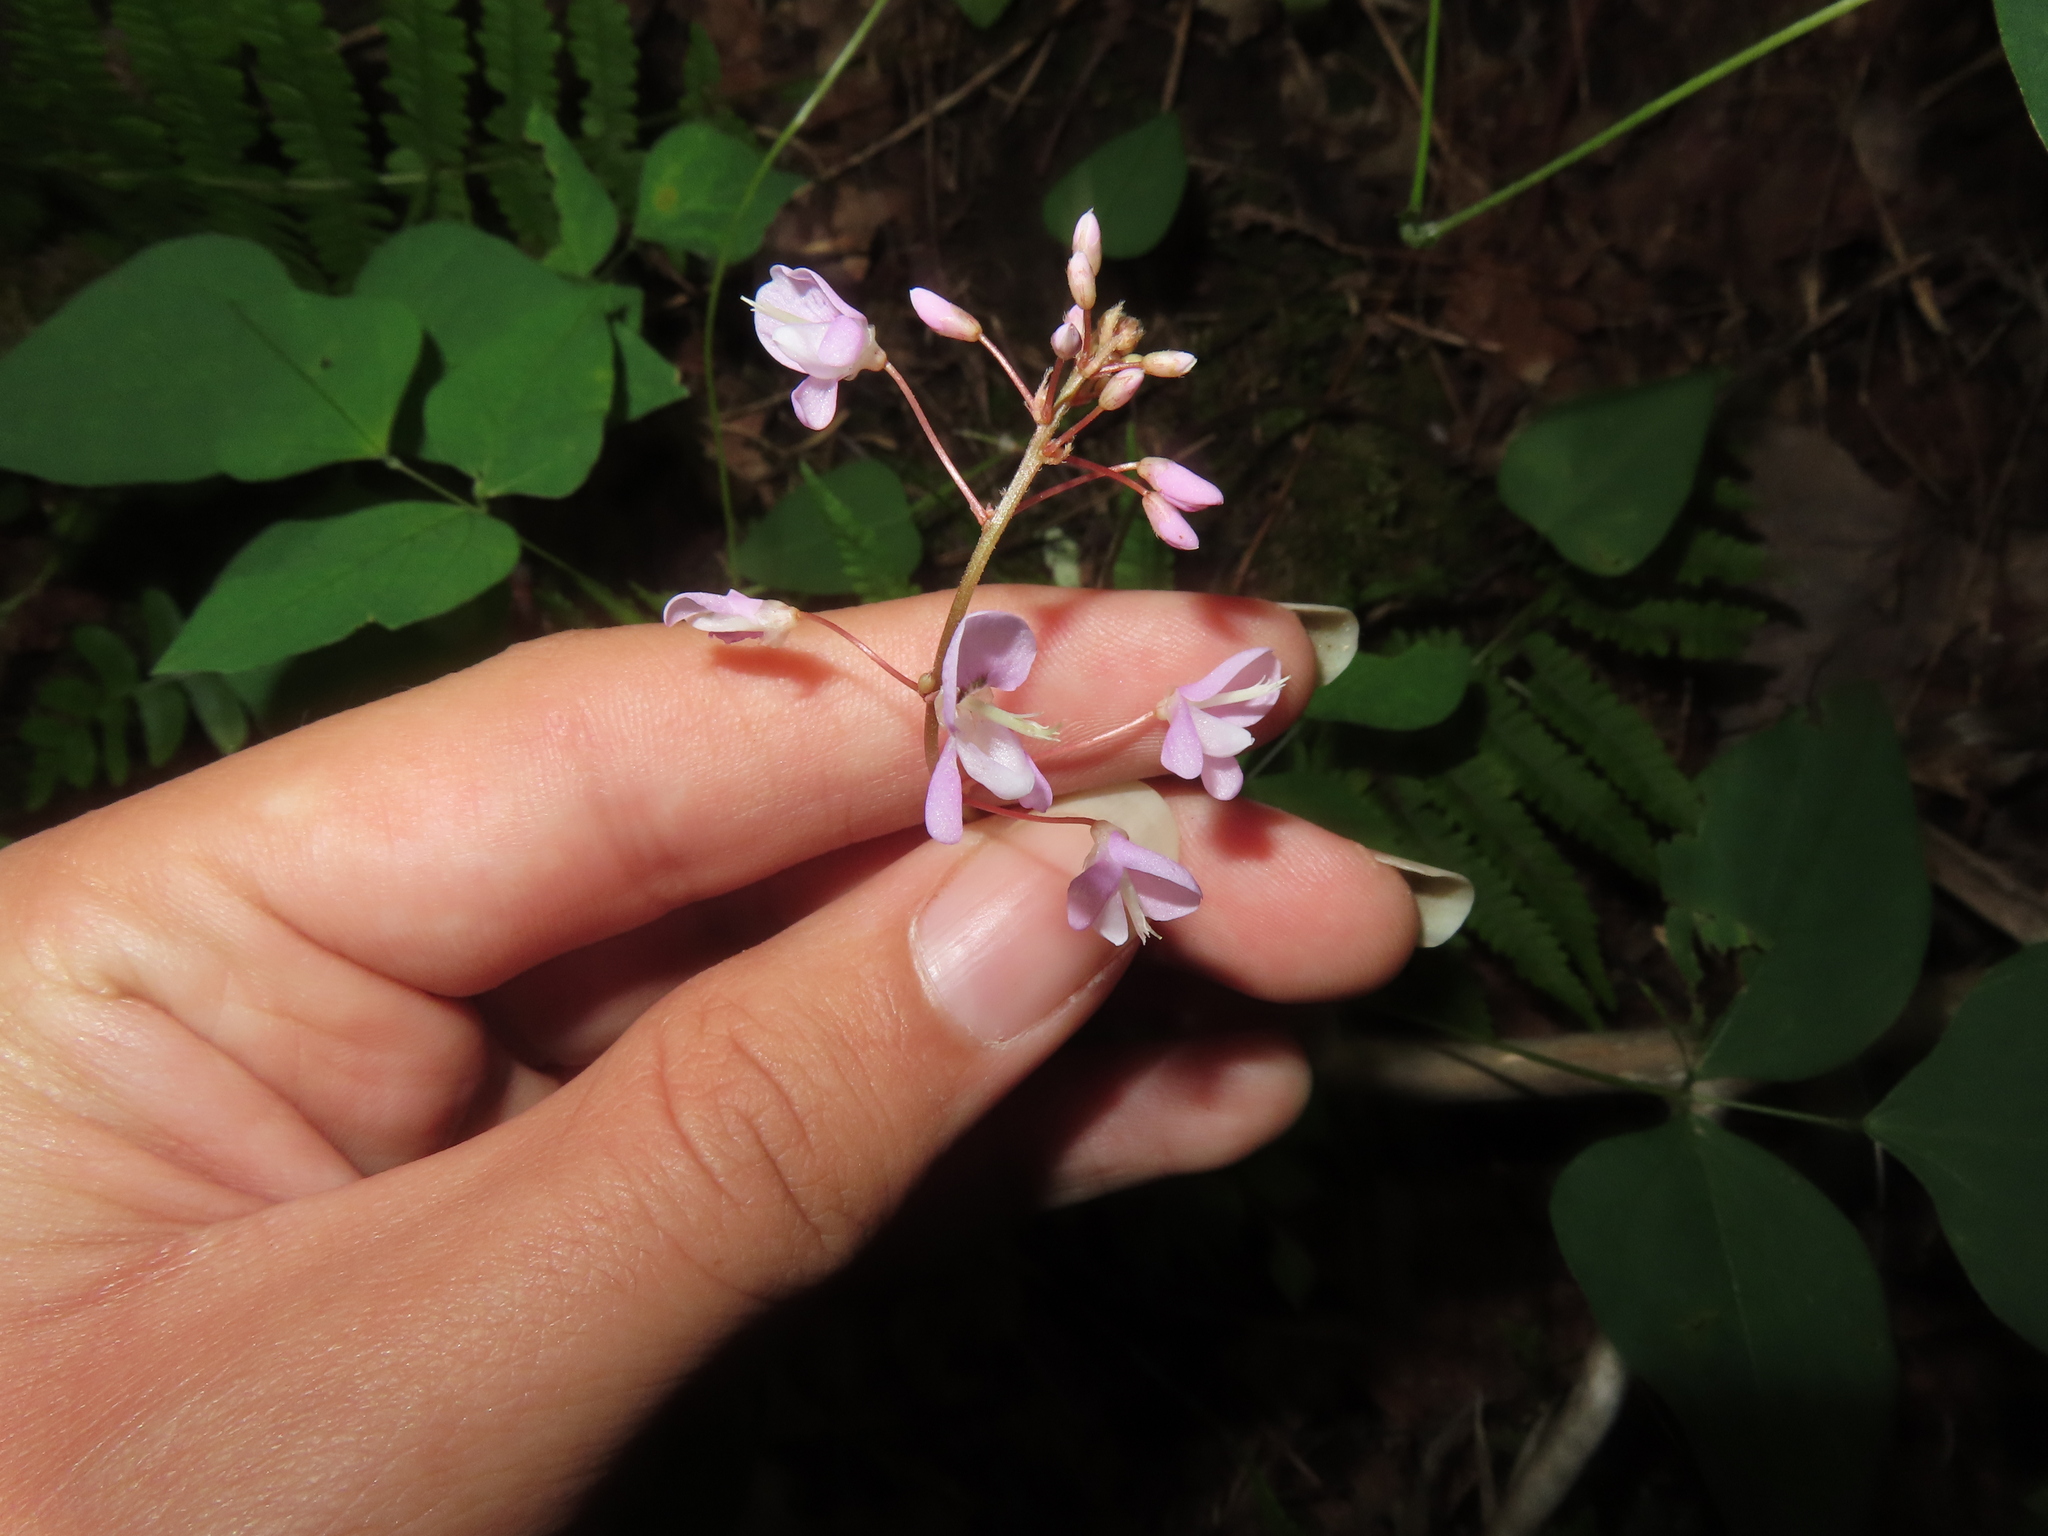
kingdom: Plantae
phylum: Tracheophyta
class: Magnoliopsida
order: Fabales
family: Fabaceae
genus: Hylodesmum
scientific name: Hylodesmum nudiflorum
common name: Bare-stemmed tick-trefoil
